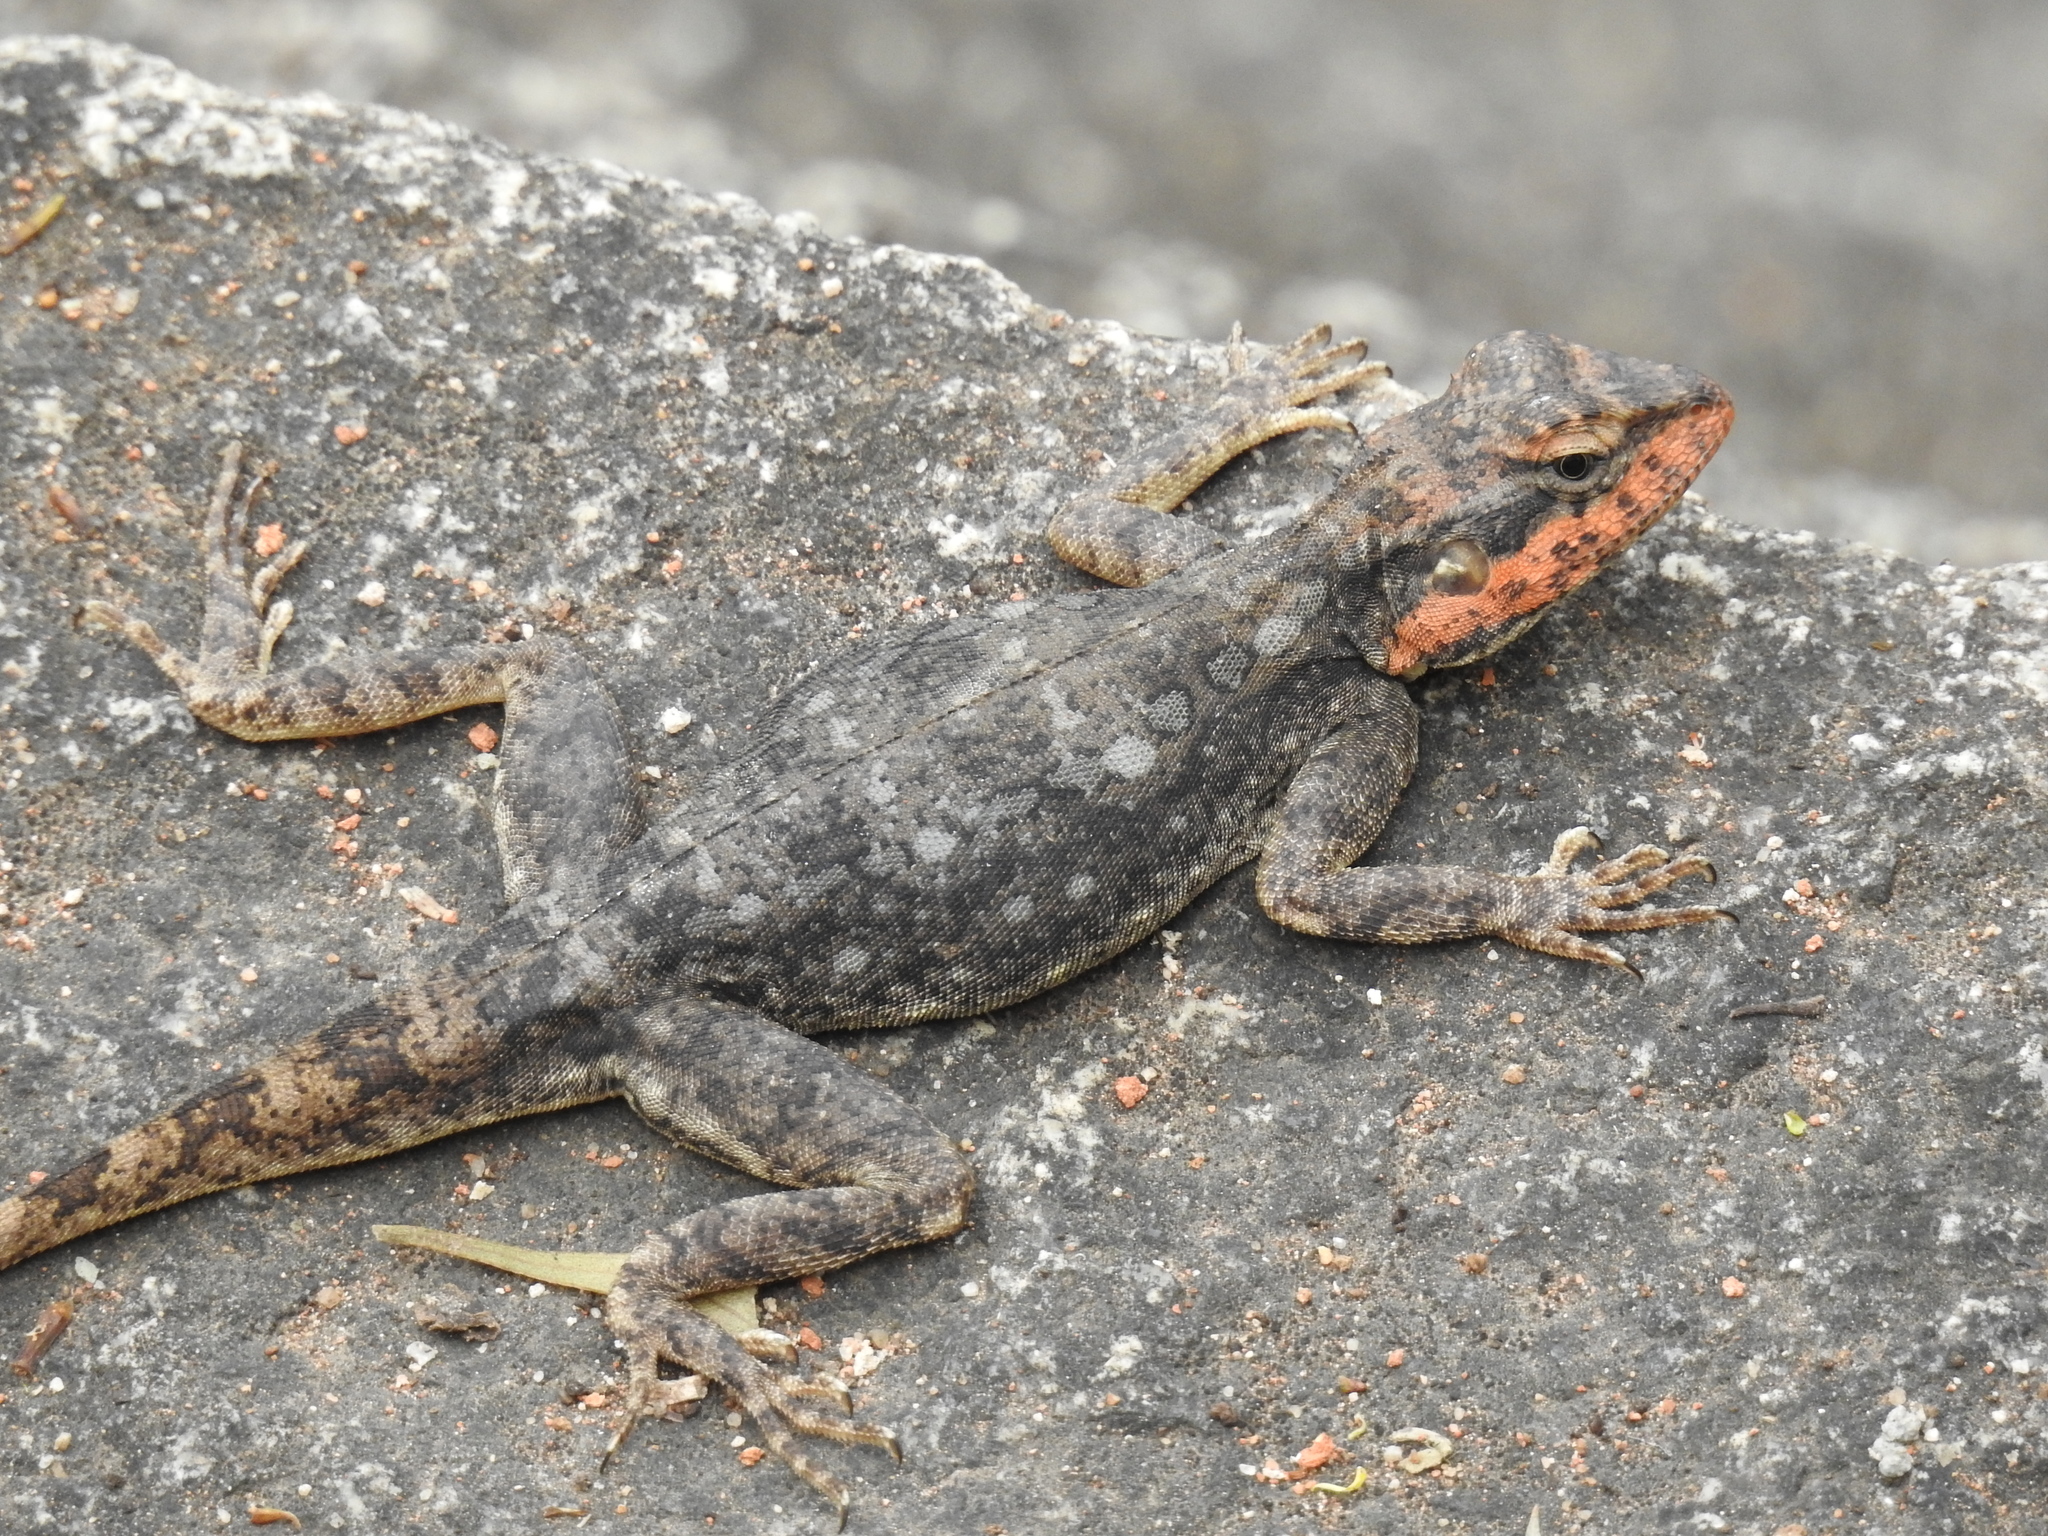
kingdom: Animalia
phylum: Chordata
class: Squamata
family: Agamidae
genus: Psammophilus
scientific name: Psammophilus dorsalis
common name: South indian rock agama
